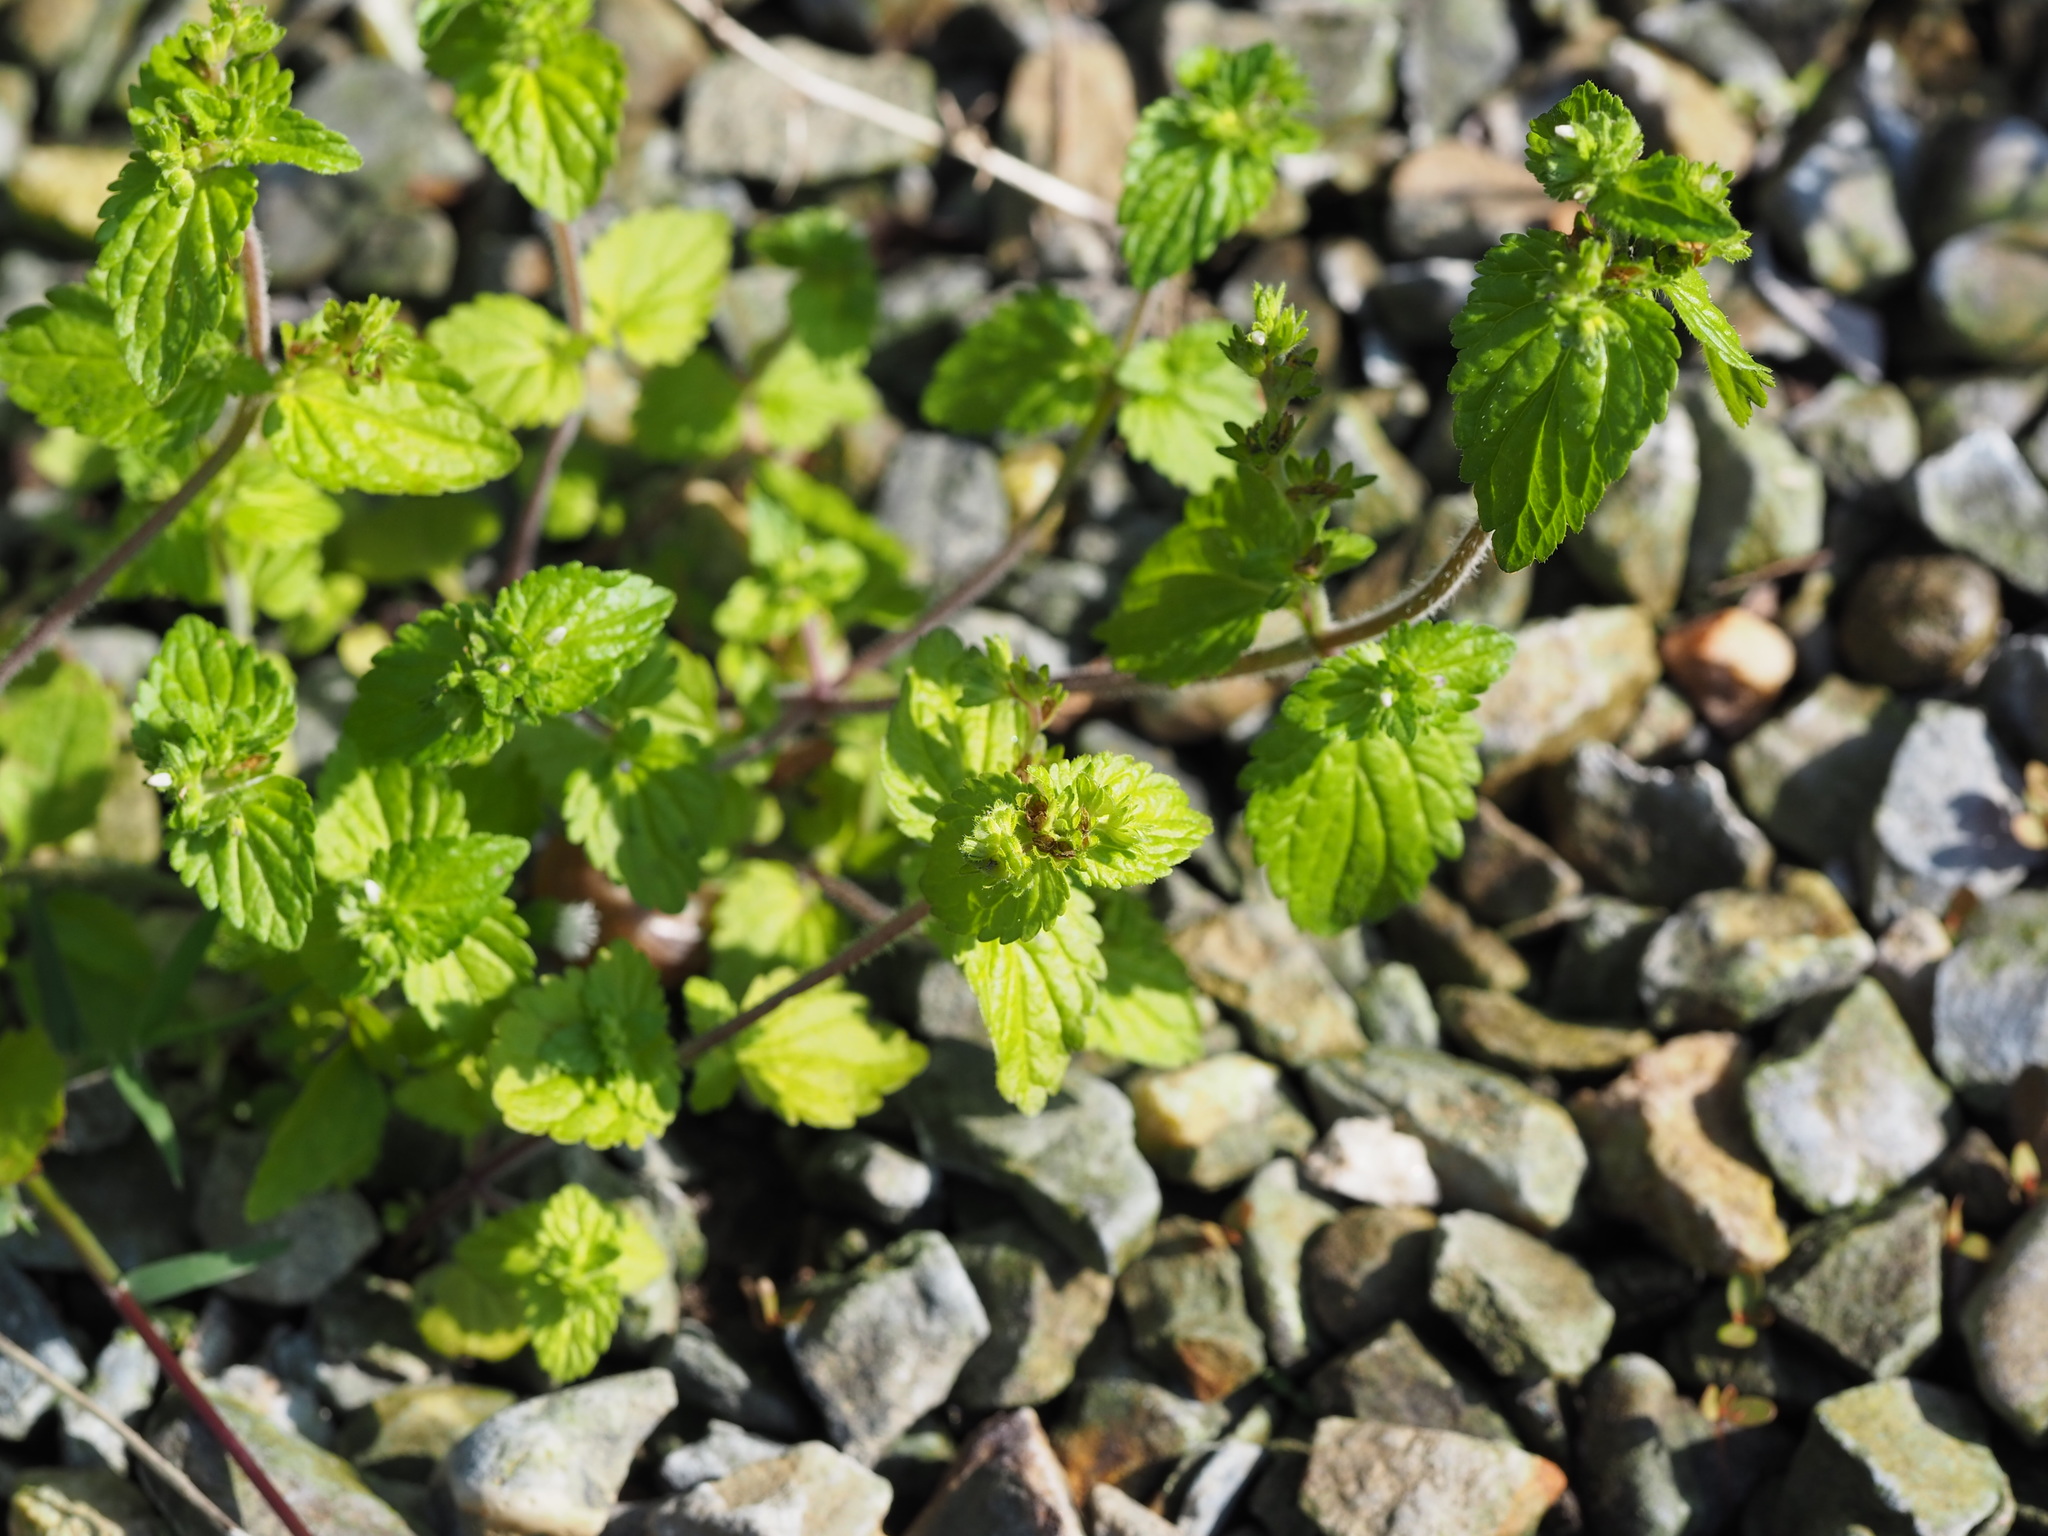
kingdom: Plantae
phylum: Tracheophyta
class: Magnoliopsida
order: Lamiales
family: Plantaginaceae
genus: Veronica
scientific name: Veronica javanica
